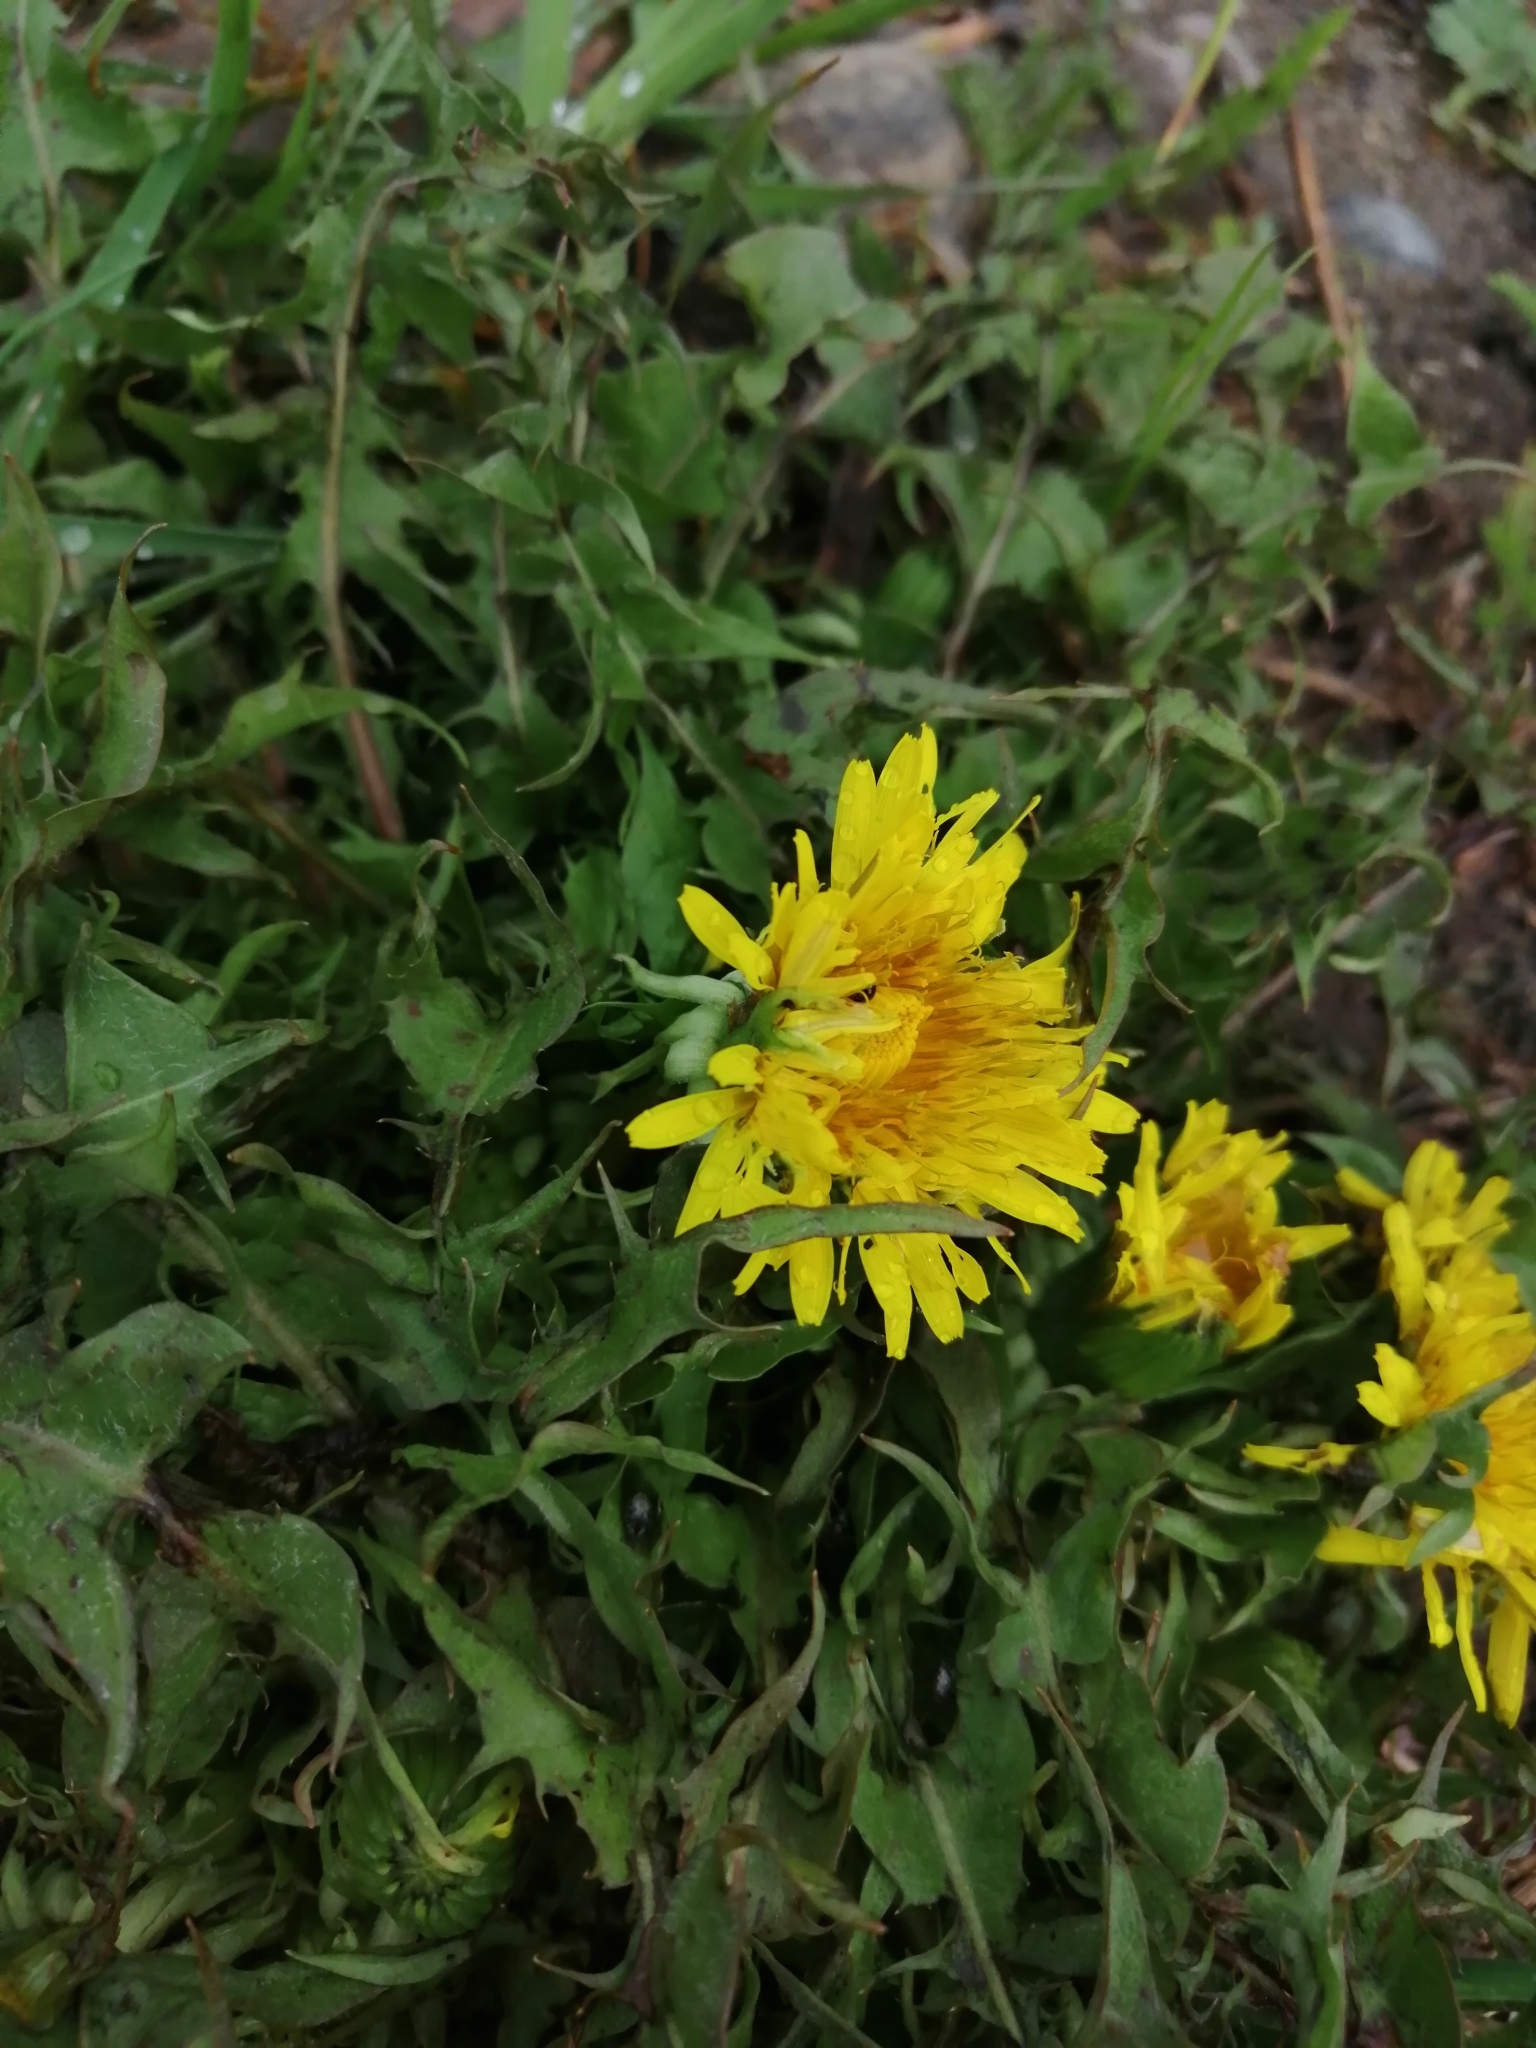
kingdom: Plantae
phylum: Tracheophyta
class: Magnoliopsida
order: Asterales
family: Asteraceae
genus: Taraxacum
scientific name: Taraxacum officinale
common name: Common dandelion
